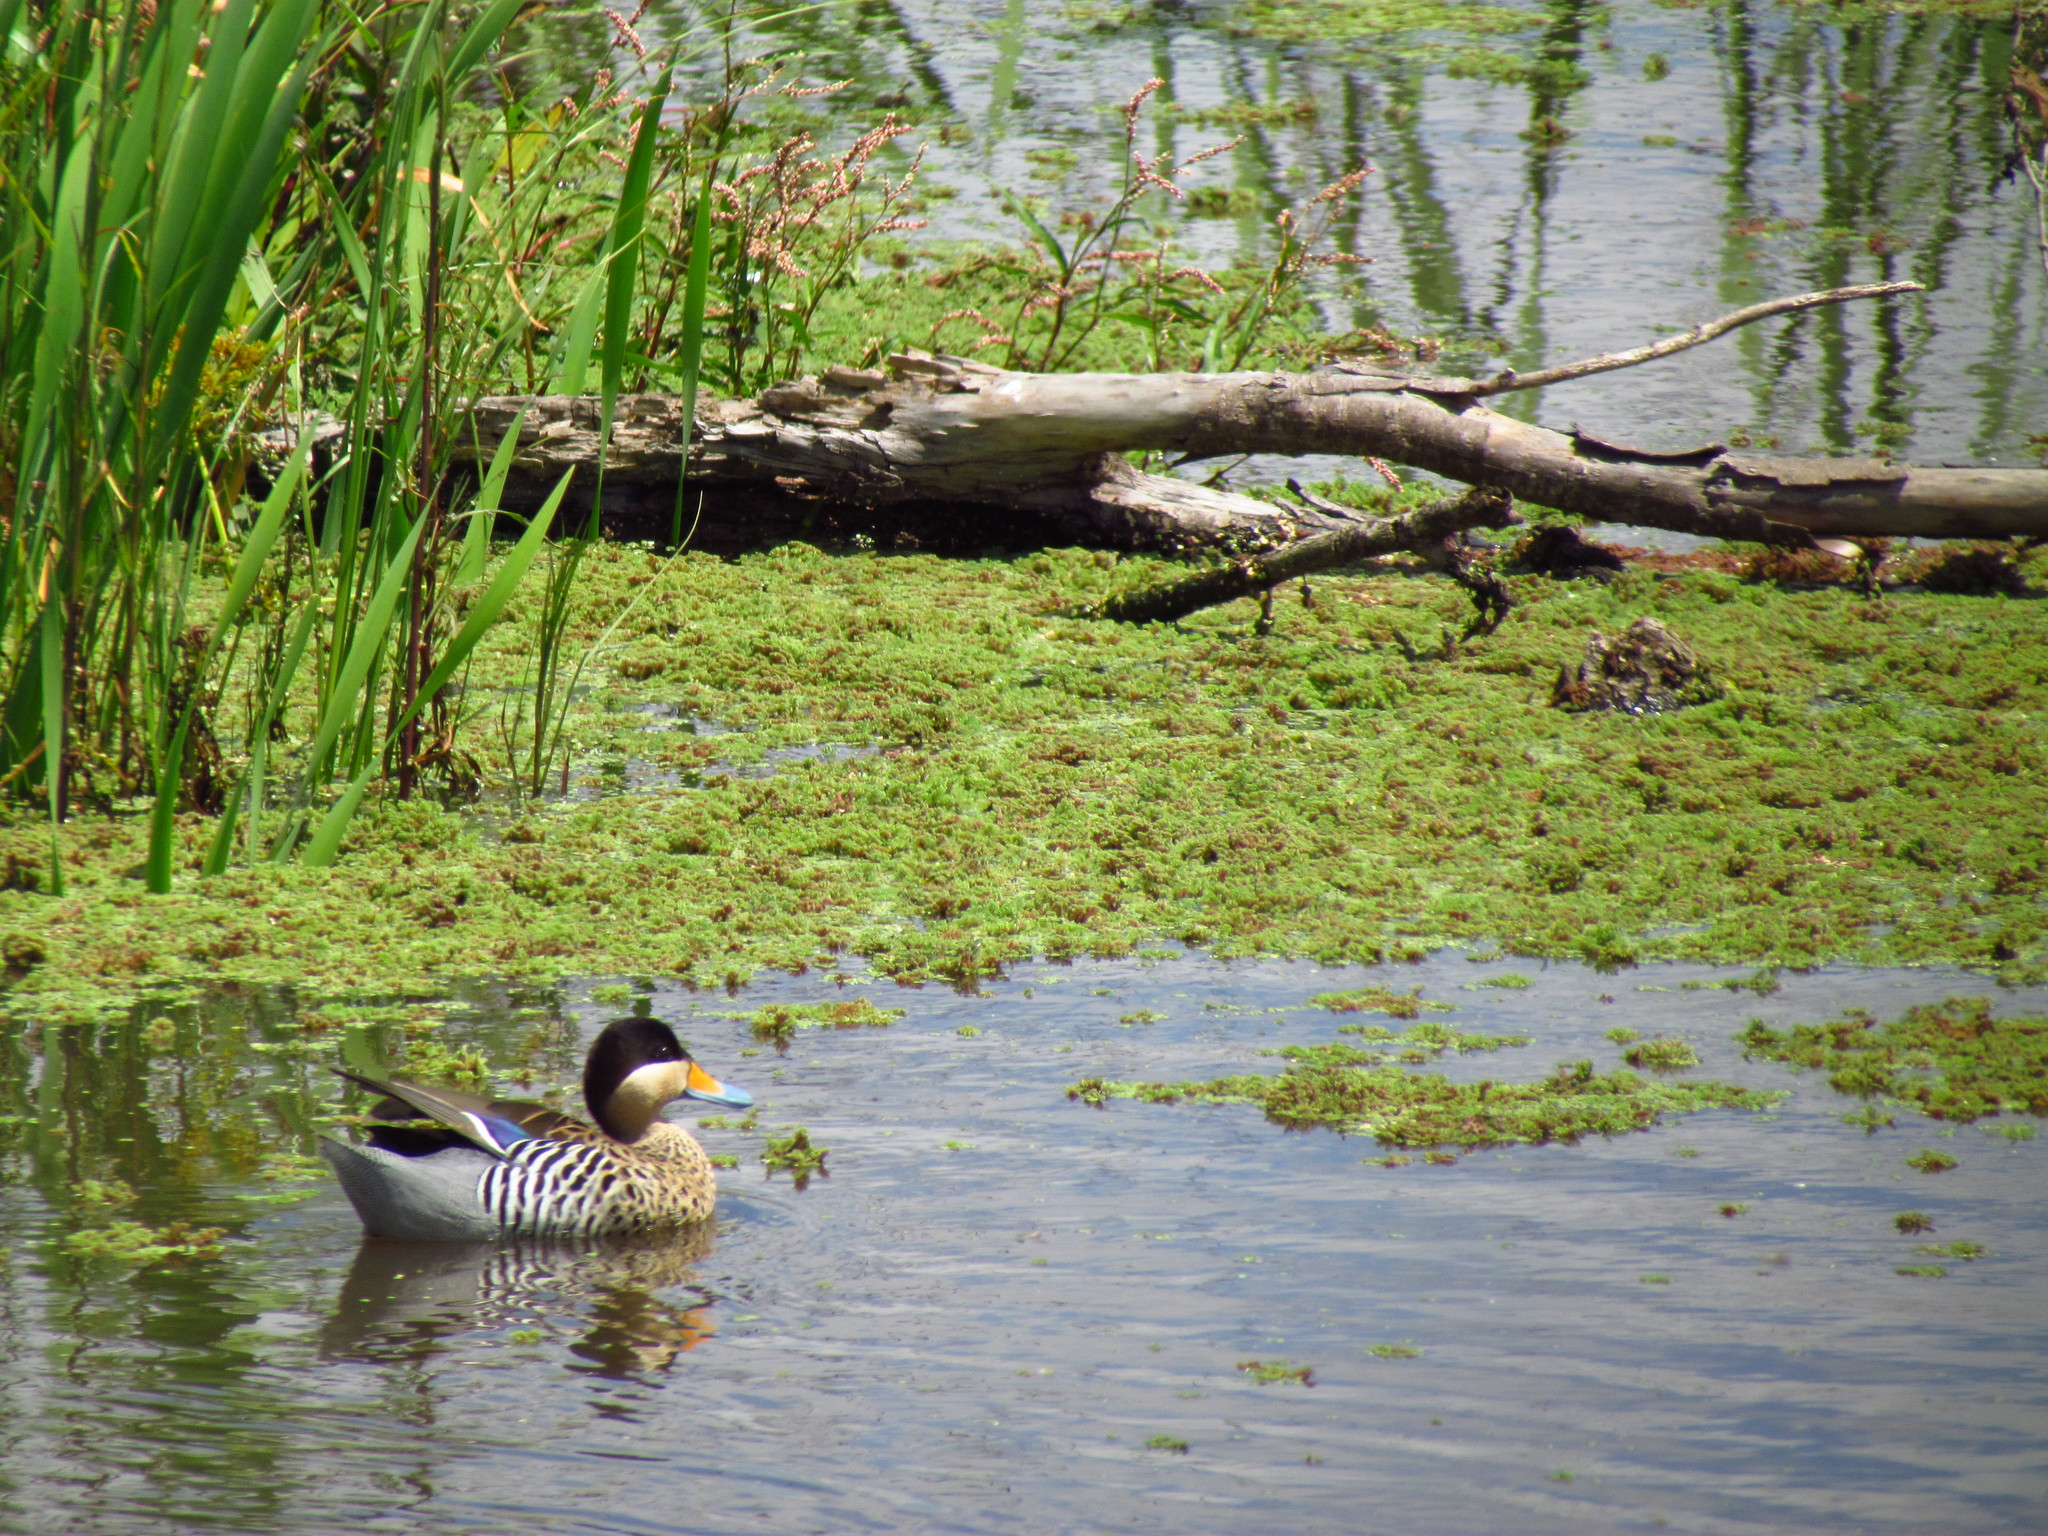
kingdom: Animalia
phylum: Chordata
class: Aves
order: Anseriformes
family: Anatidae
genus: Spatula
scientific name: Spatula versicolor
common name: Silver teal
